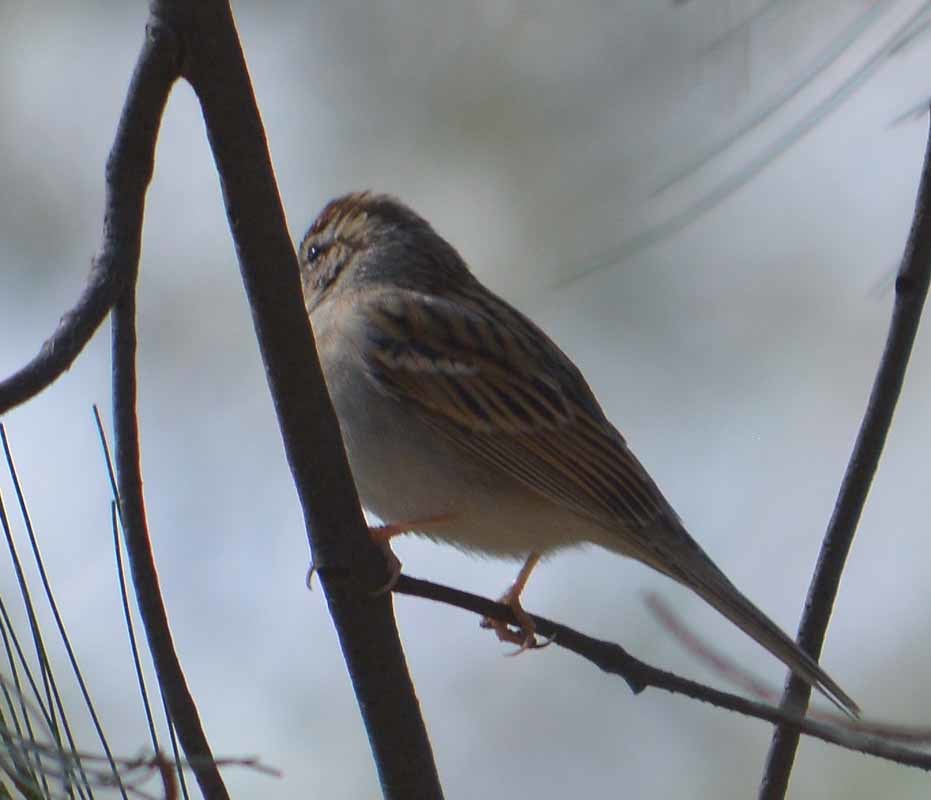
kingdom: Animalia
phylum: Chordata
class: Aves
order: Passeriformes
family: Passerellidae
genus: Spizella
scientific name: Spizella passerina
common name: Chipping sparrow
